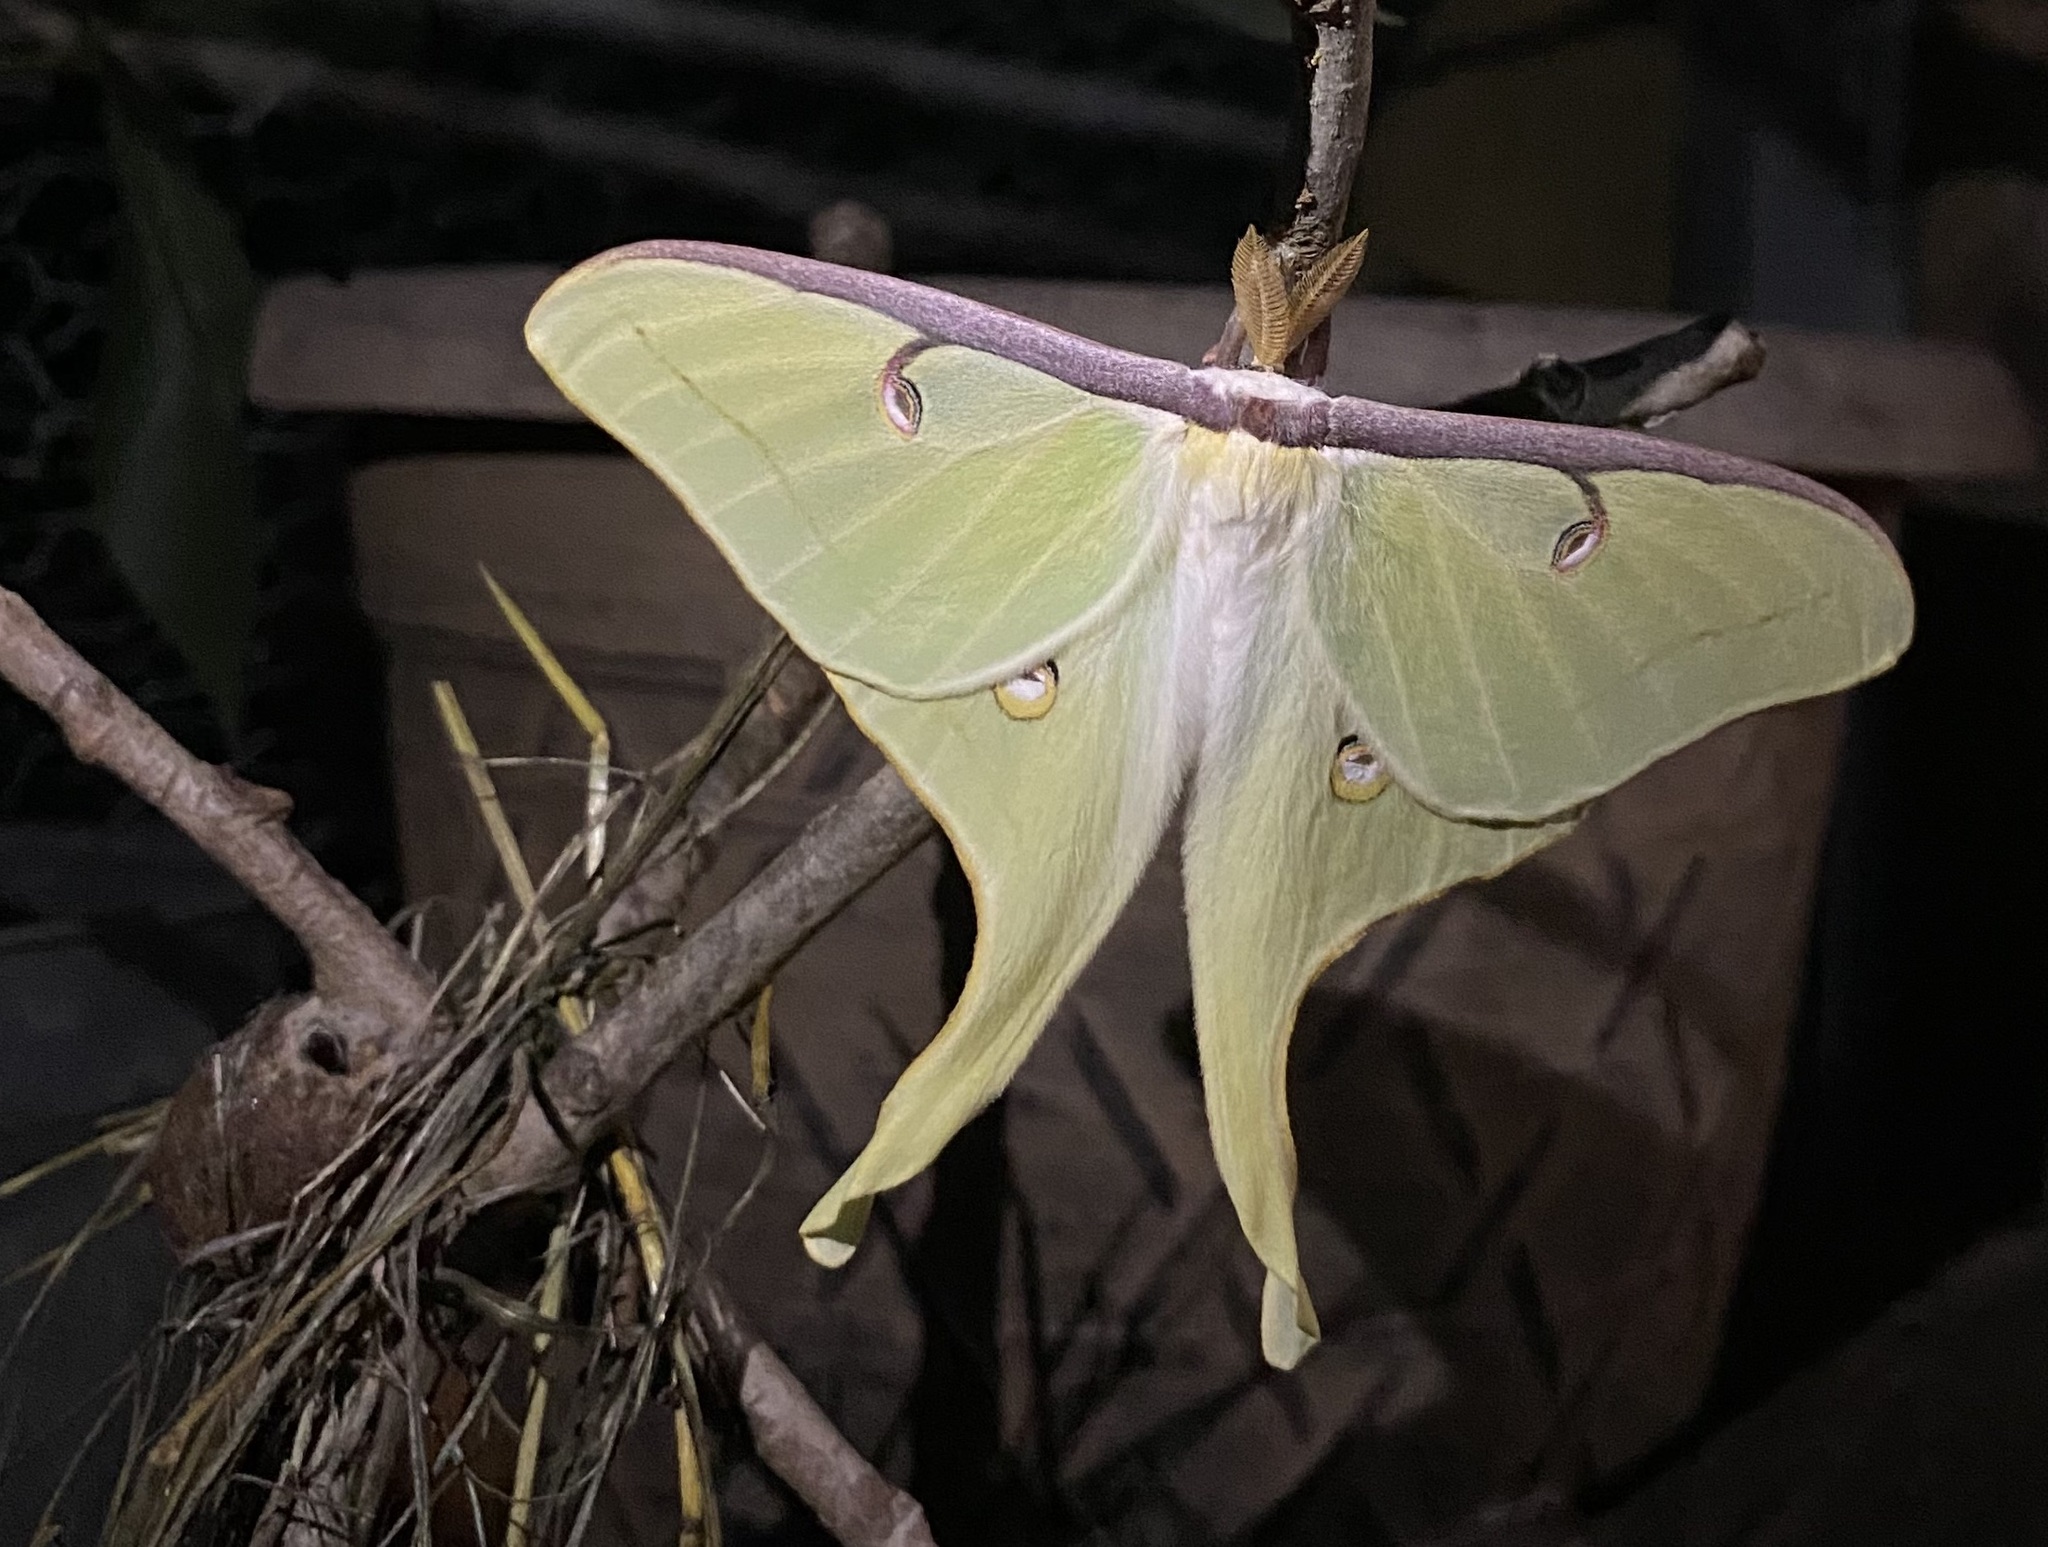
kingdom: Animalia
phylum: Arthropoda
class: Insecta
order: Lepidoptera
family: Saturniidae
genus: Actias
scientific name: Actias luna
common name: Luna moth
